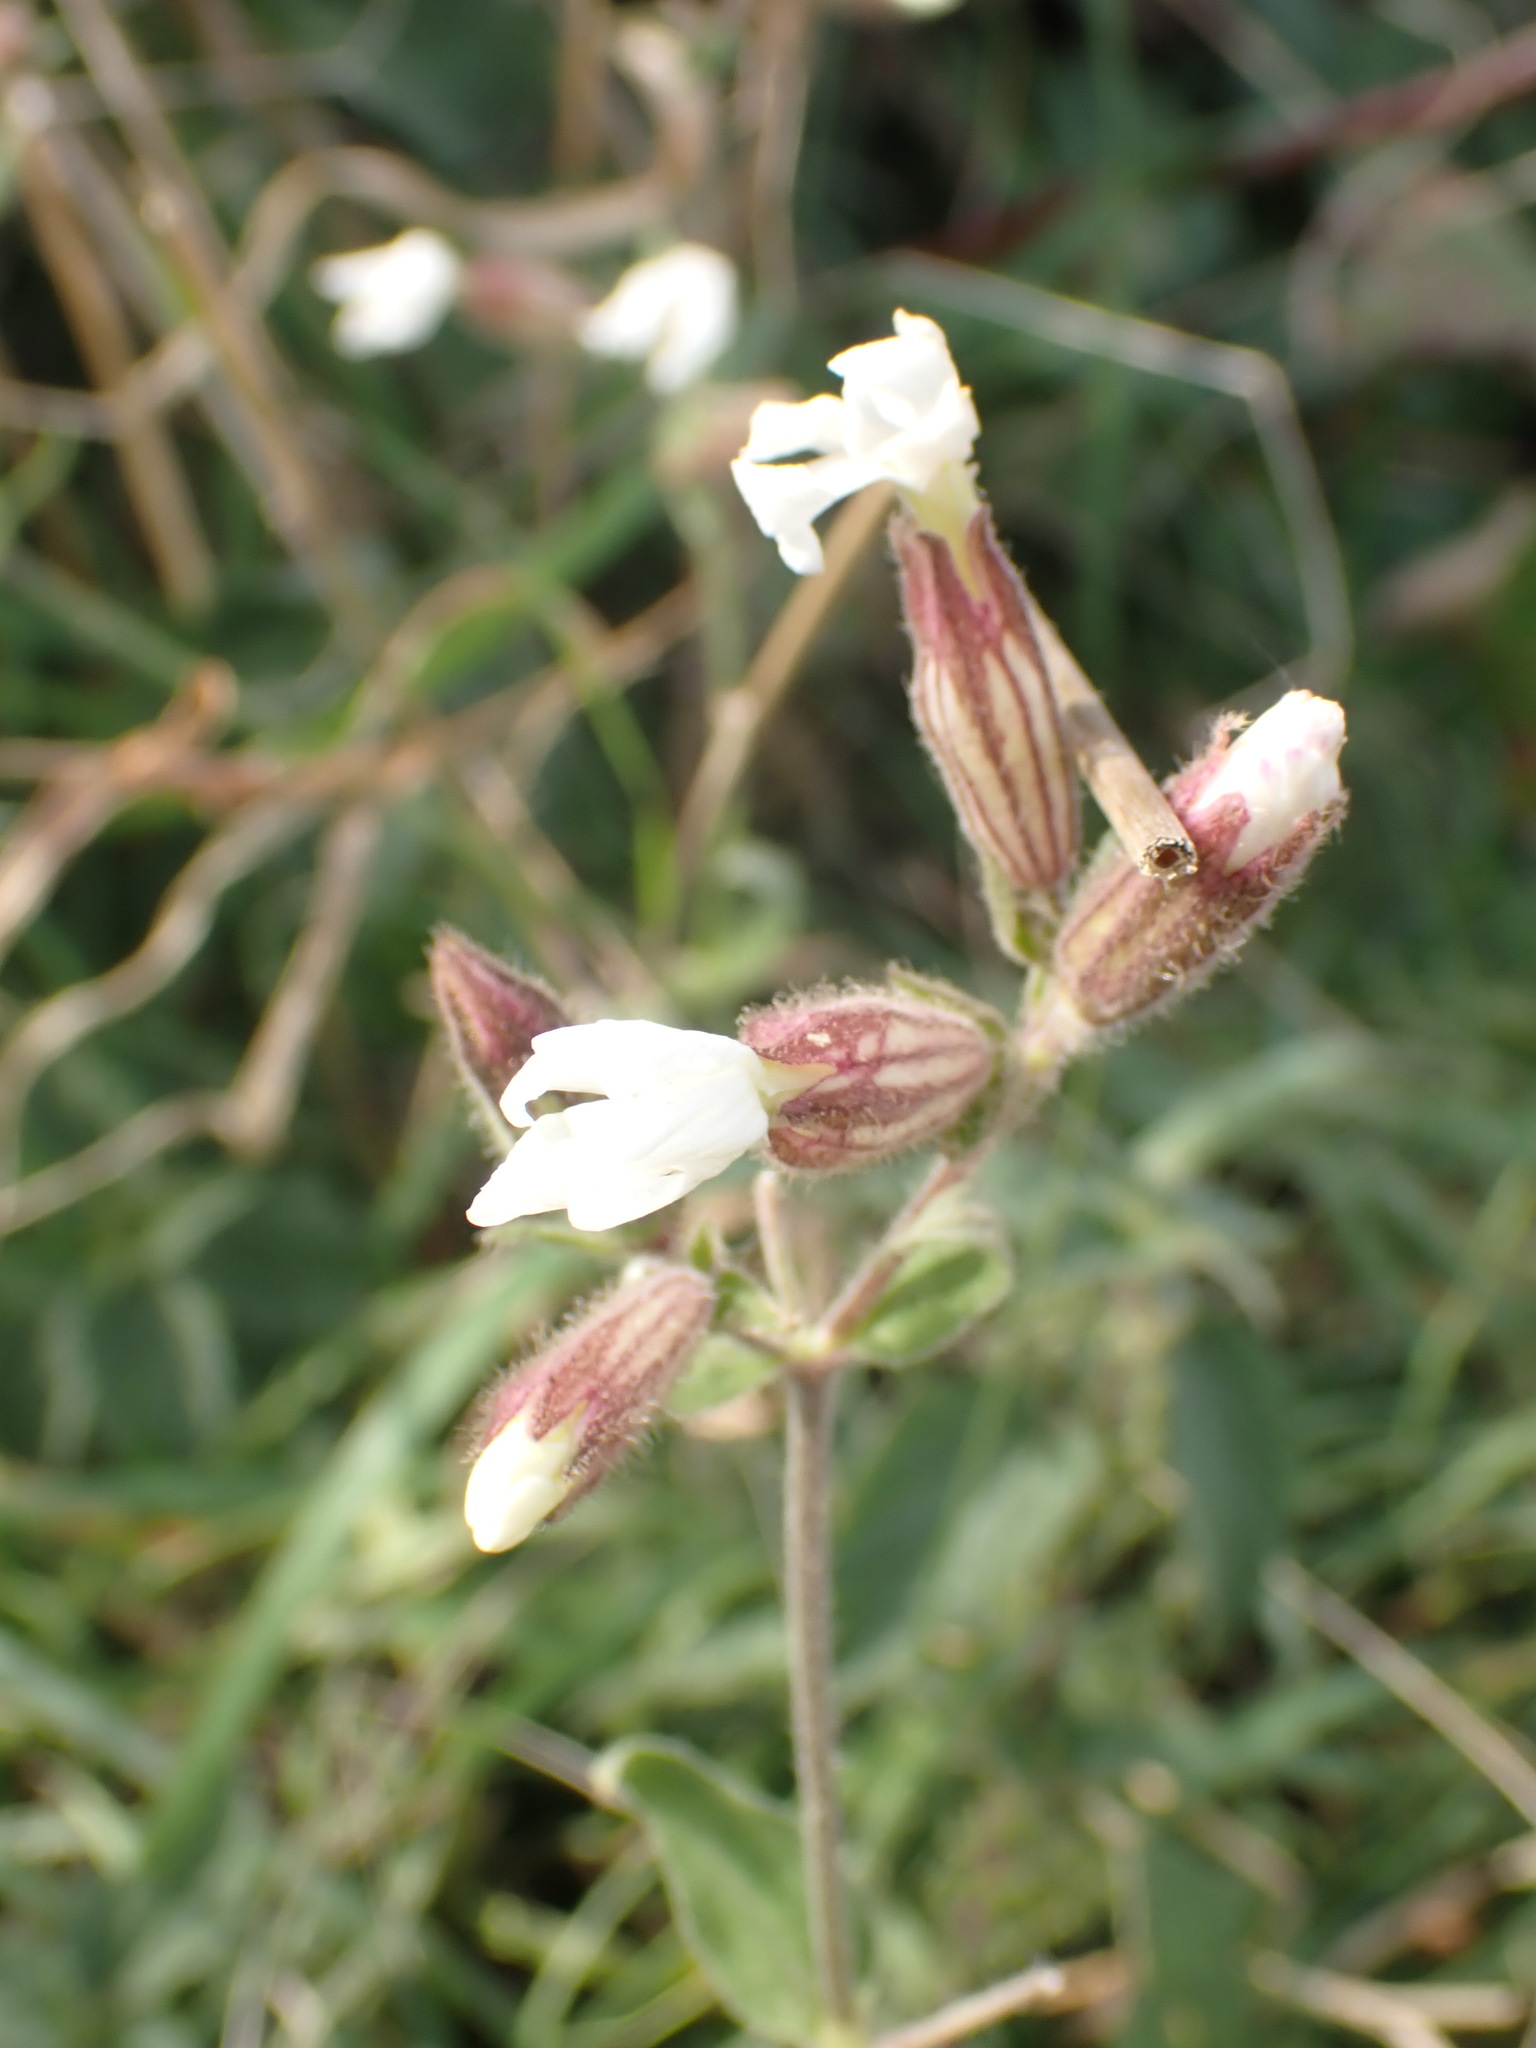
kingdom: Plantae
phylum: Tracheophyta
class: Magnoliopsida
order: Caryophyllales
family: Caryophyllaceae
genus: Silene
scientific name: Silene latifolia
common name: White campion
